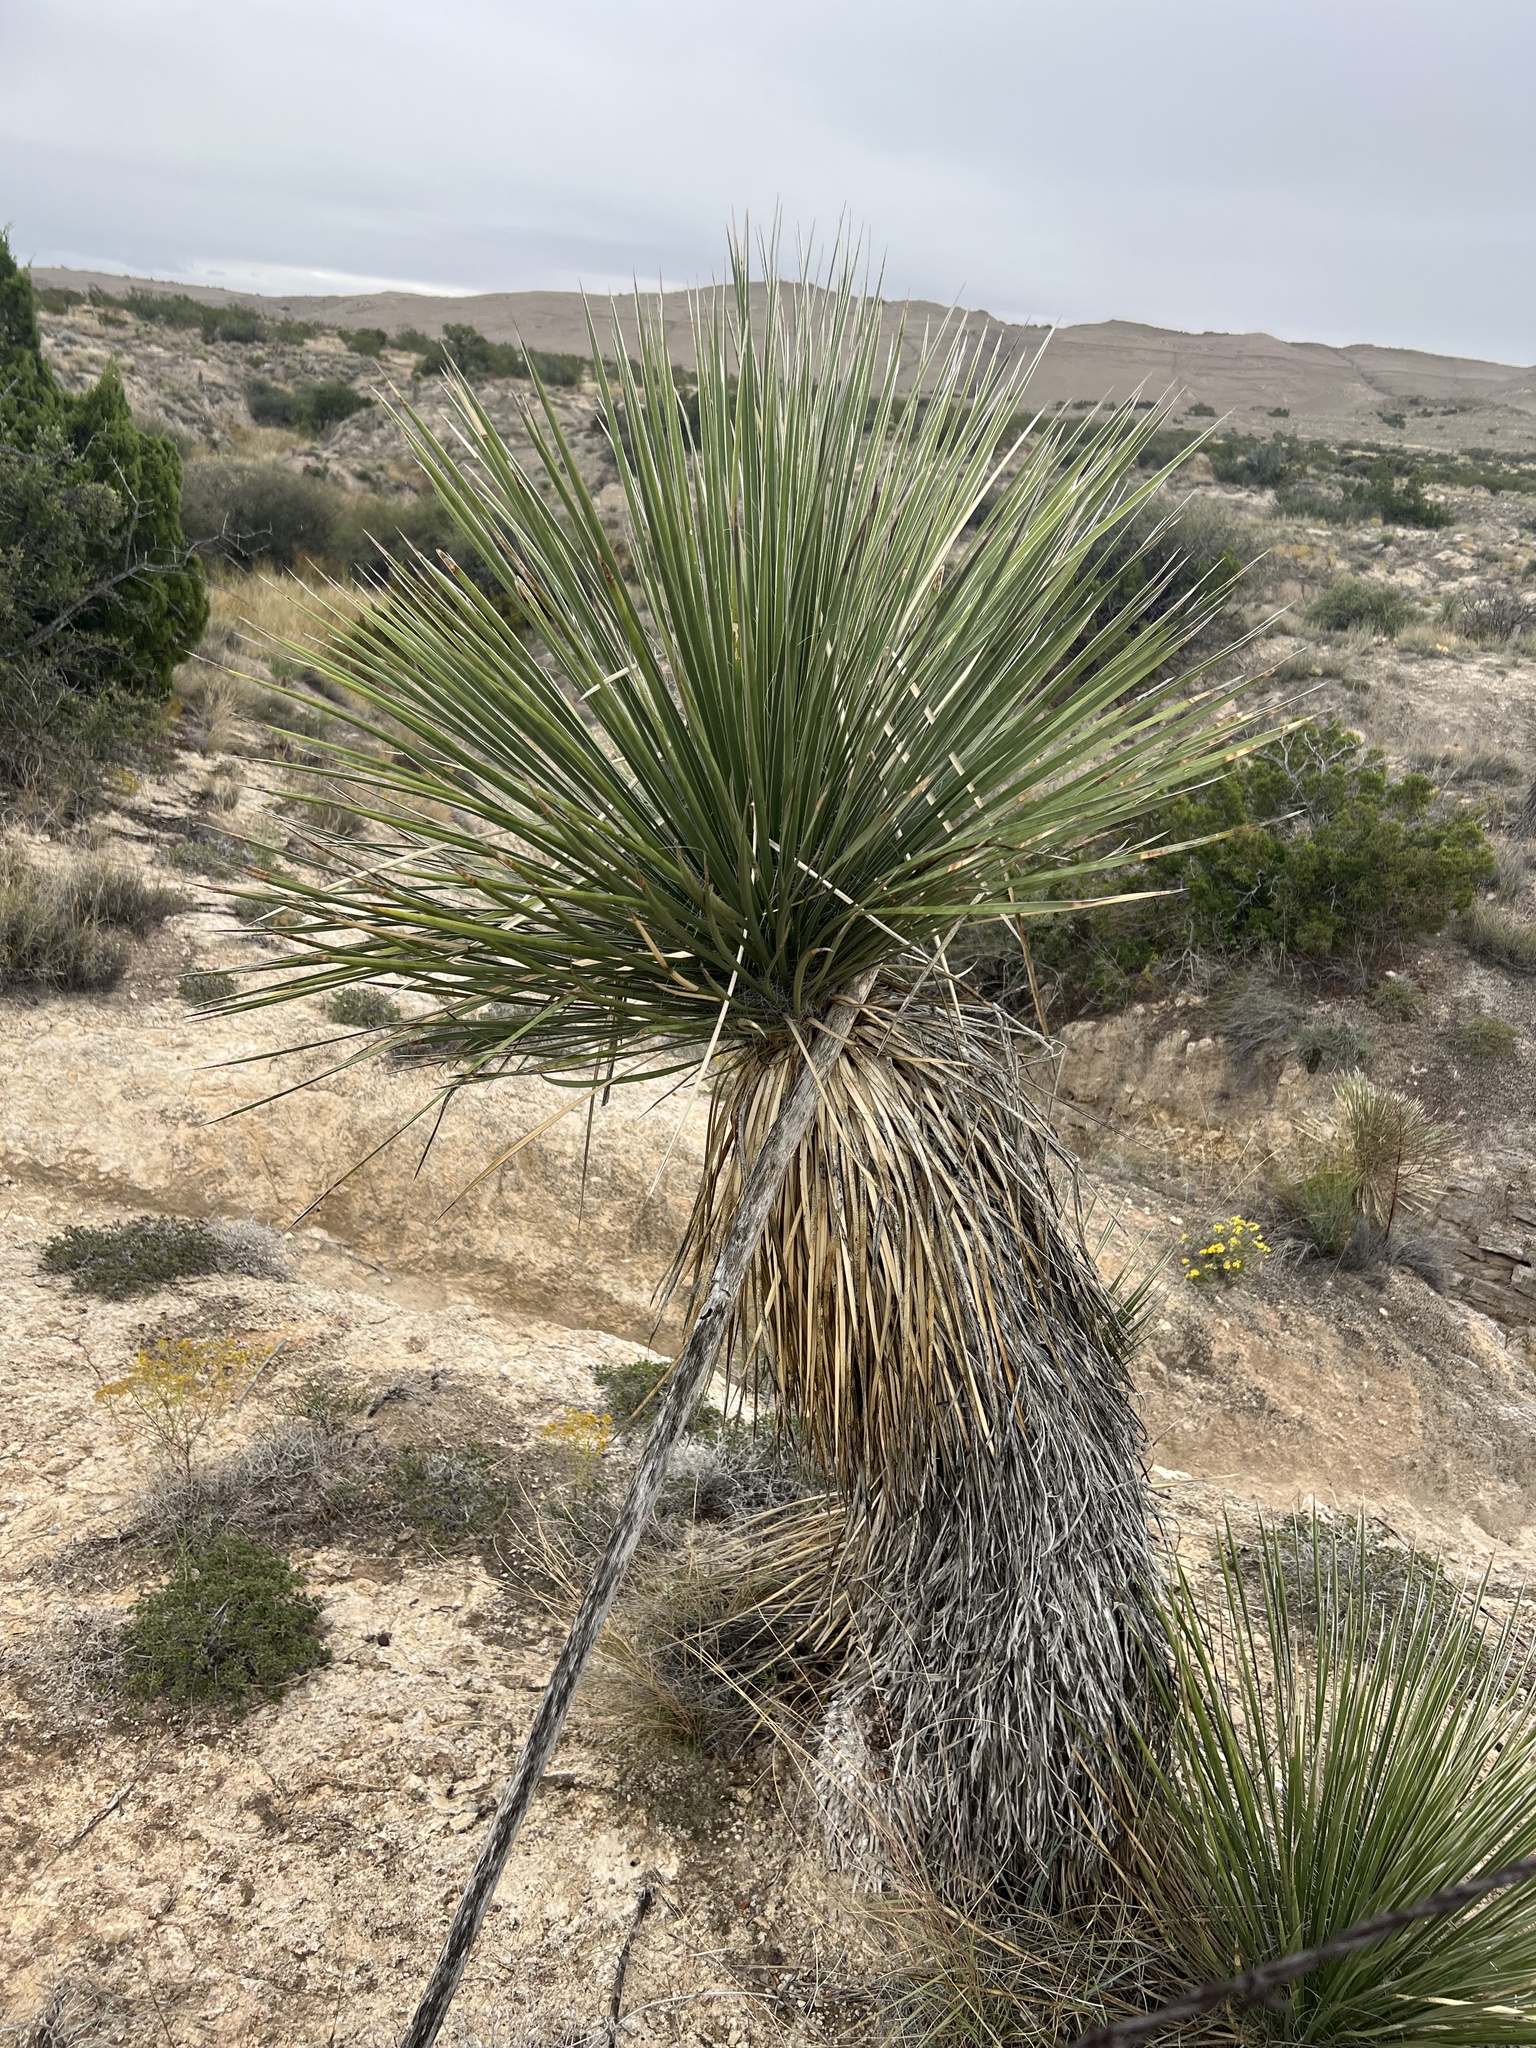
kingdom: Plantae
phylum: Tracheophyta
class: Liliopsida
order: Asparagales
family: Asparagaceae
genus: Yucca
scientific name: Yucca elata
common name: Palmella
